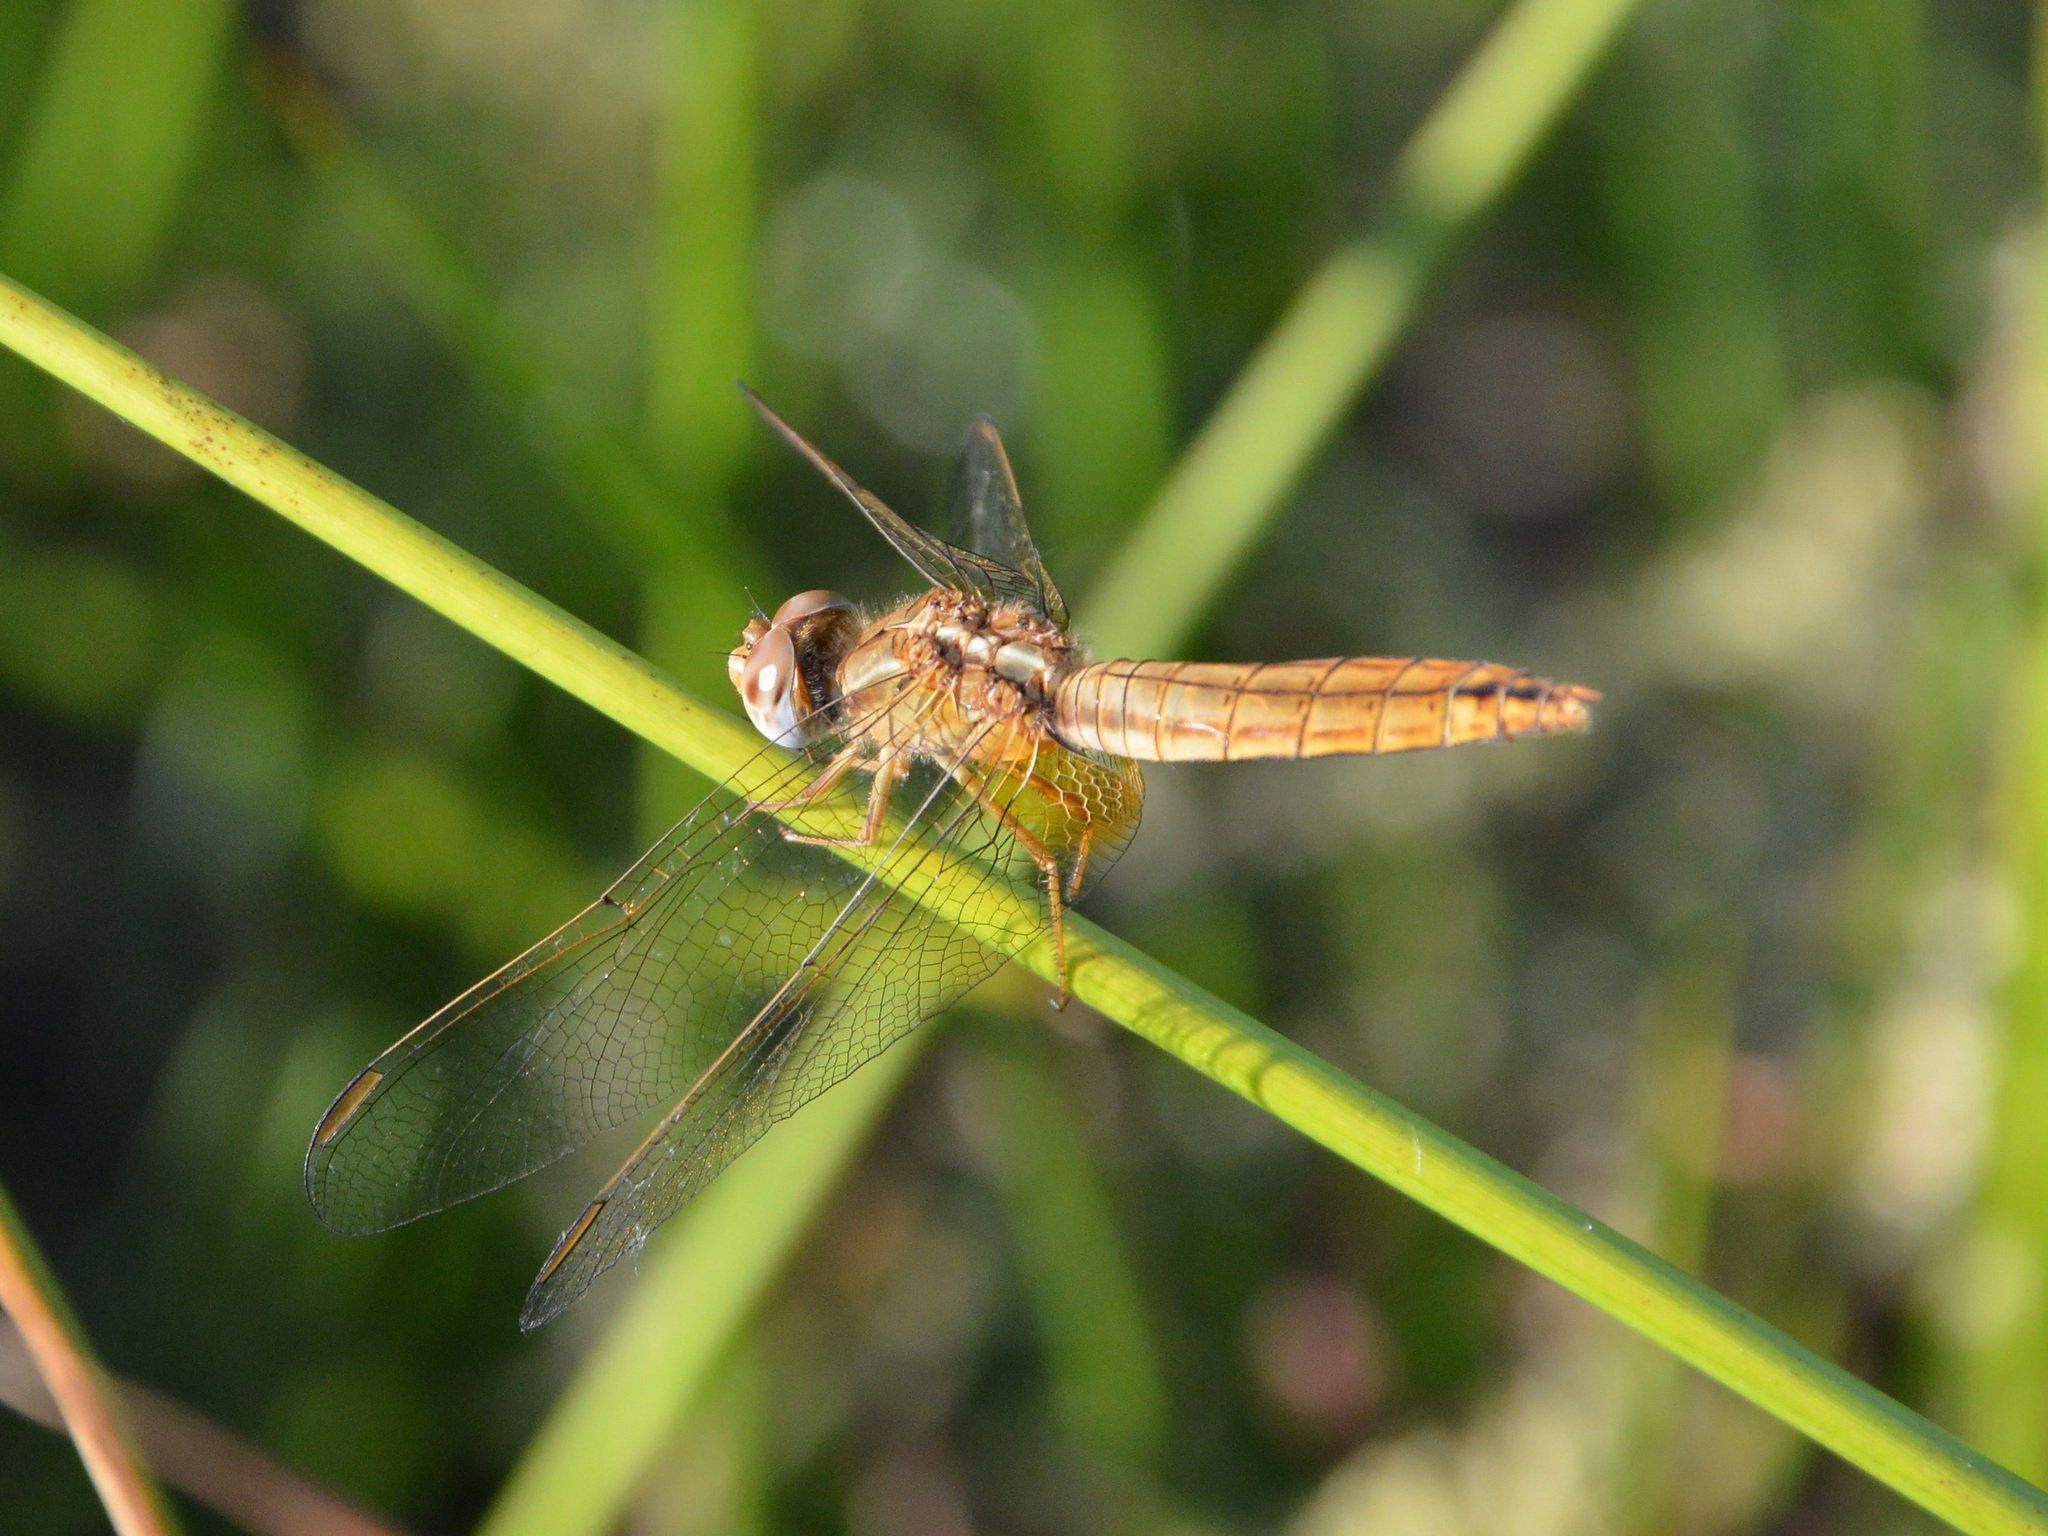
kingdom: Animalia
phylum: Arthropoda
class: Insecta
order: Odonata
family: Libellulidae
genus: Crocothemis
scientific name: Crocothemis erythraea
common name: Scarlet dragonfly
